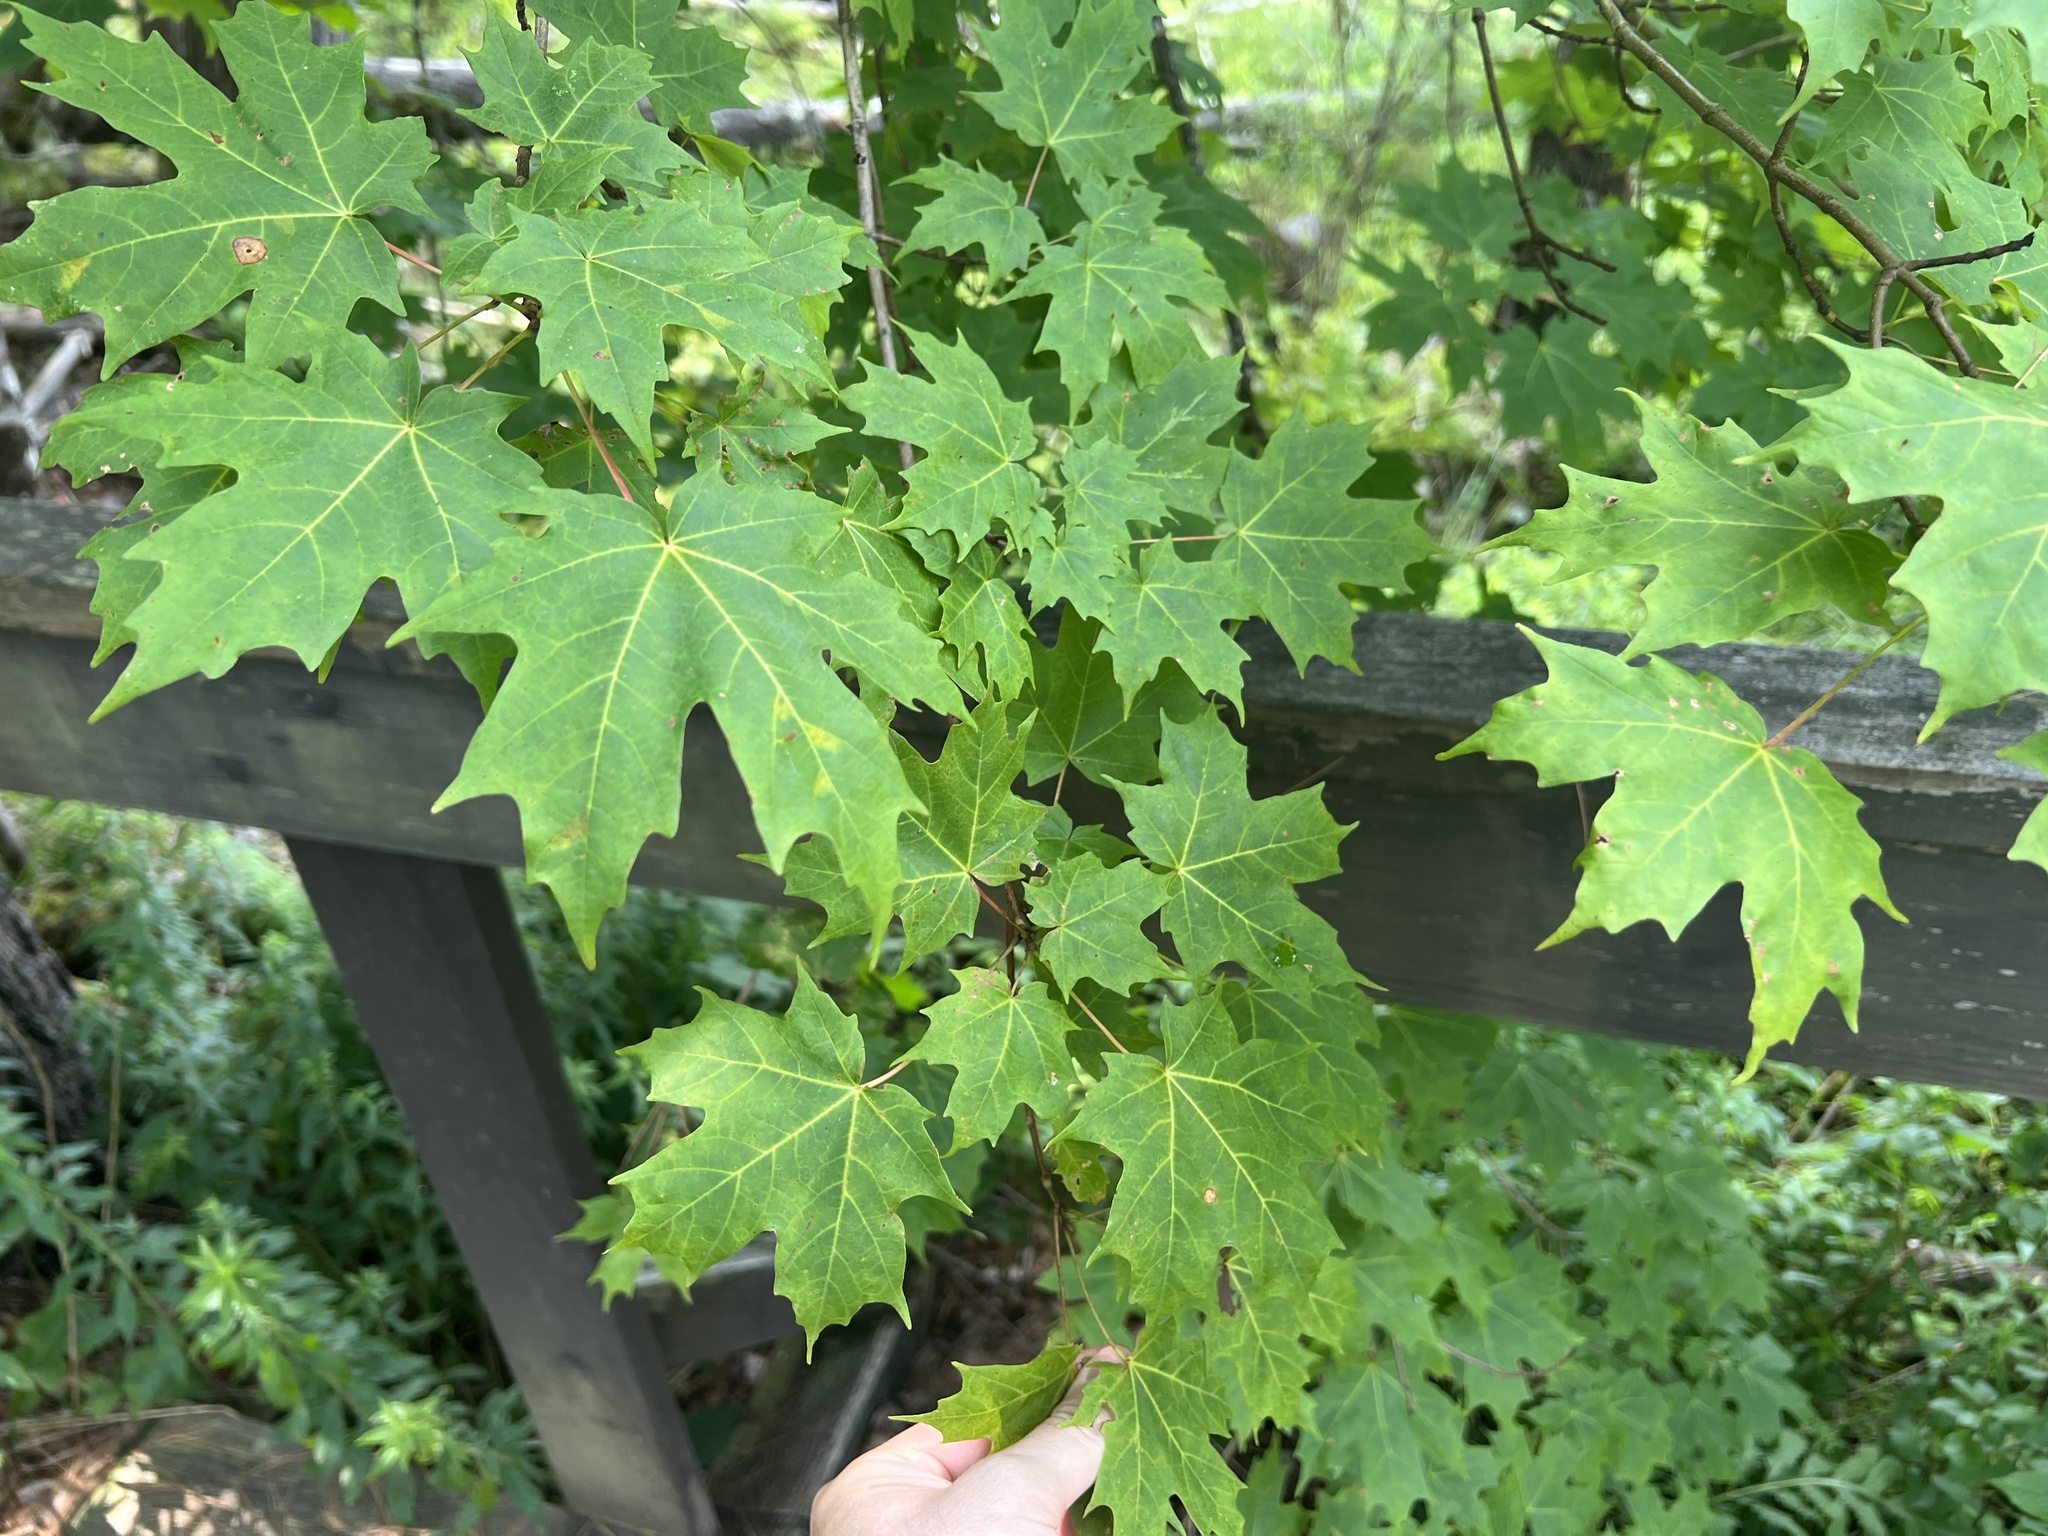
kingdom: Plantae
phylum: Tracheophyta
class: Magnoliopsida
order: Sapindales
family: Sapindaceae
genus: Acer
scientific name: Acer saccharum
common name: Sugar maple
